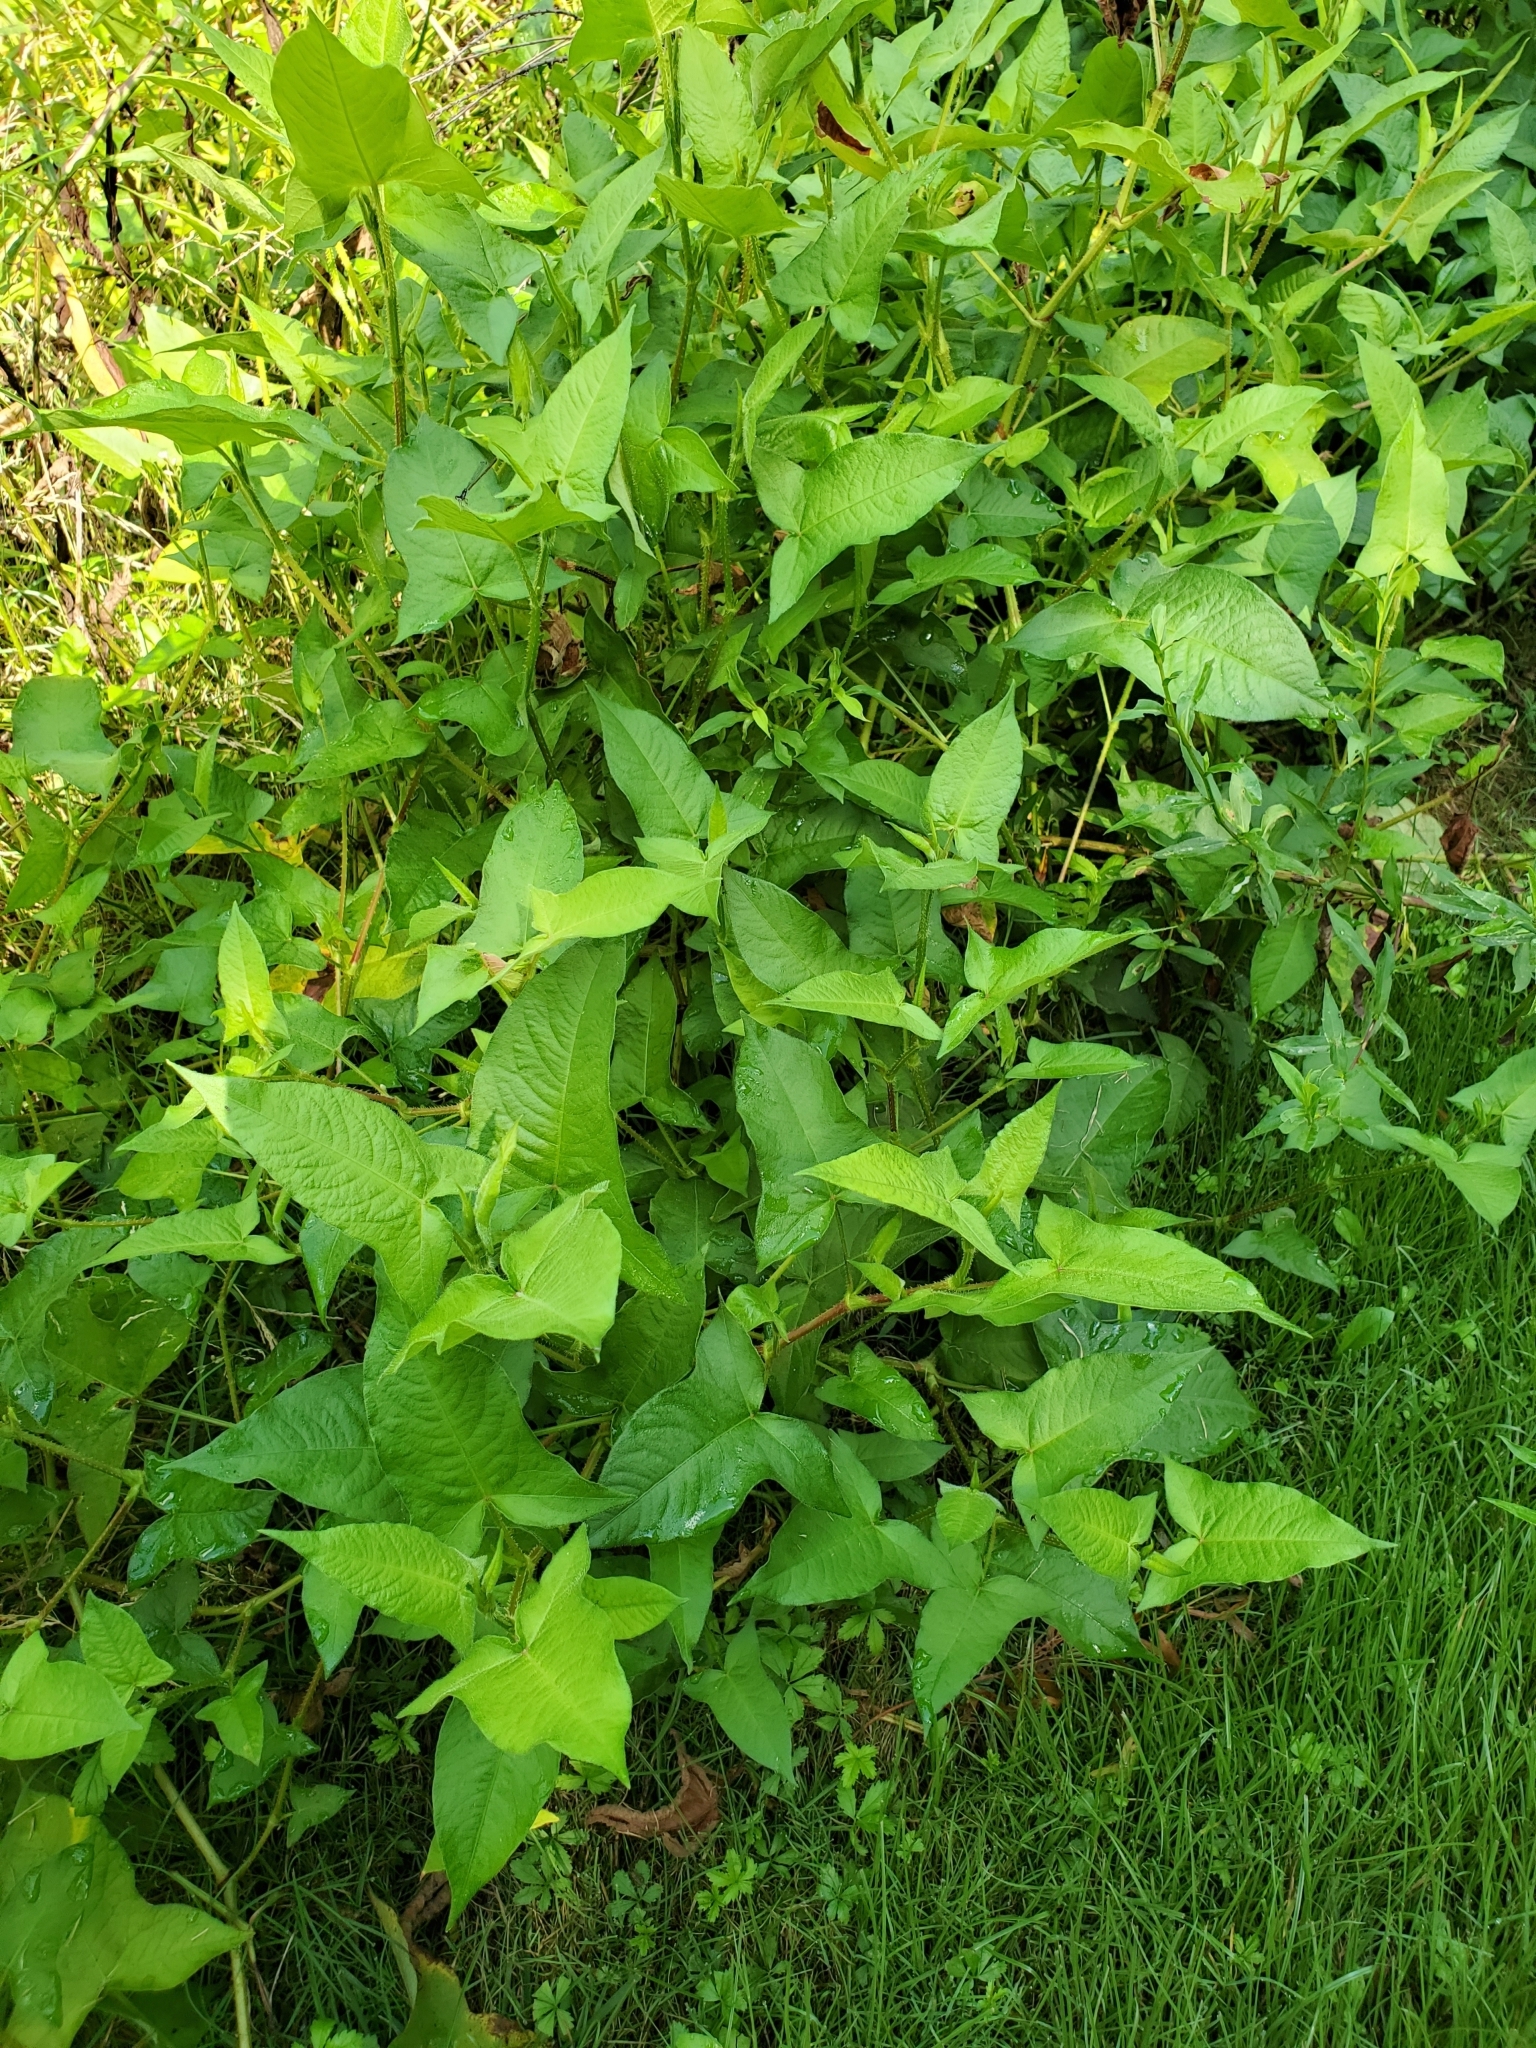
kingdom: Plantae
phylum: Tracheophyta
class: Magnoliopsida
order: Caryophyllales
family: Polygonaceae
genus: Persicaria
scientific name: Persicaria arifolia
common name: Halberd-leaved tear-thumb
